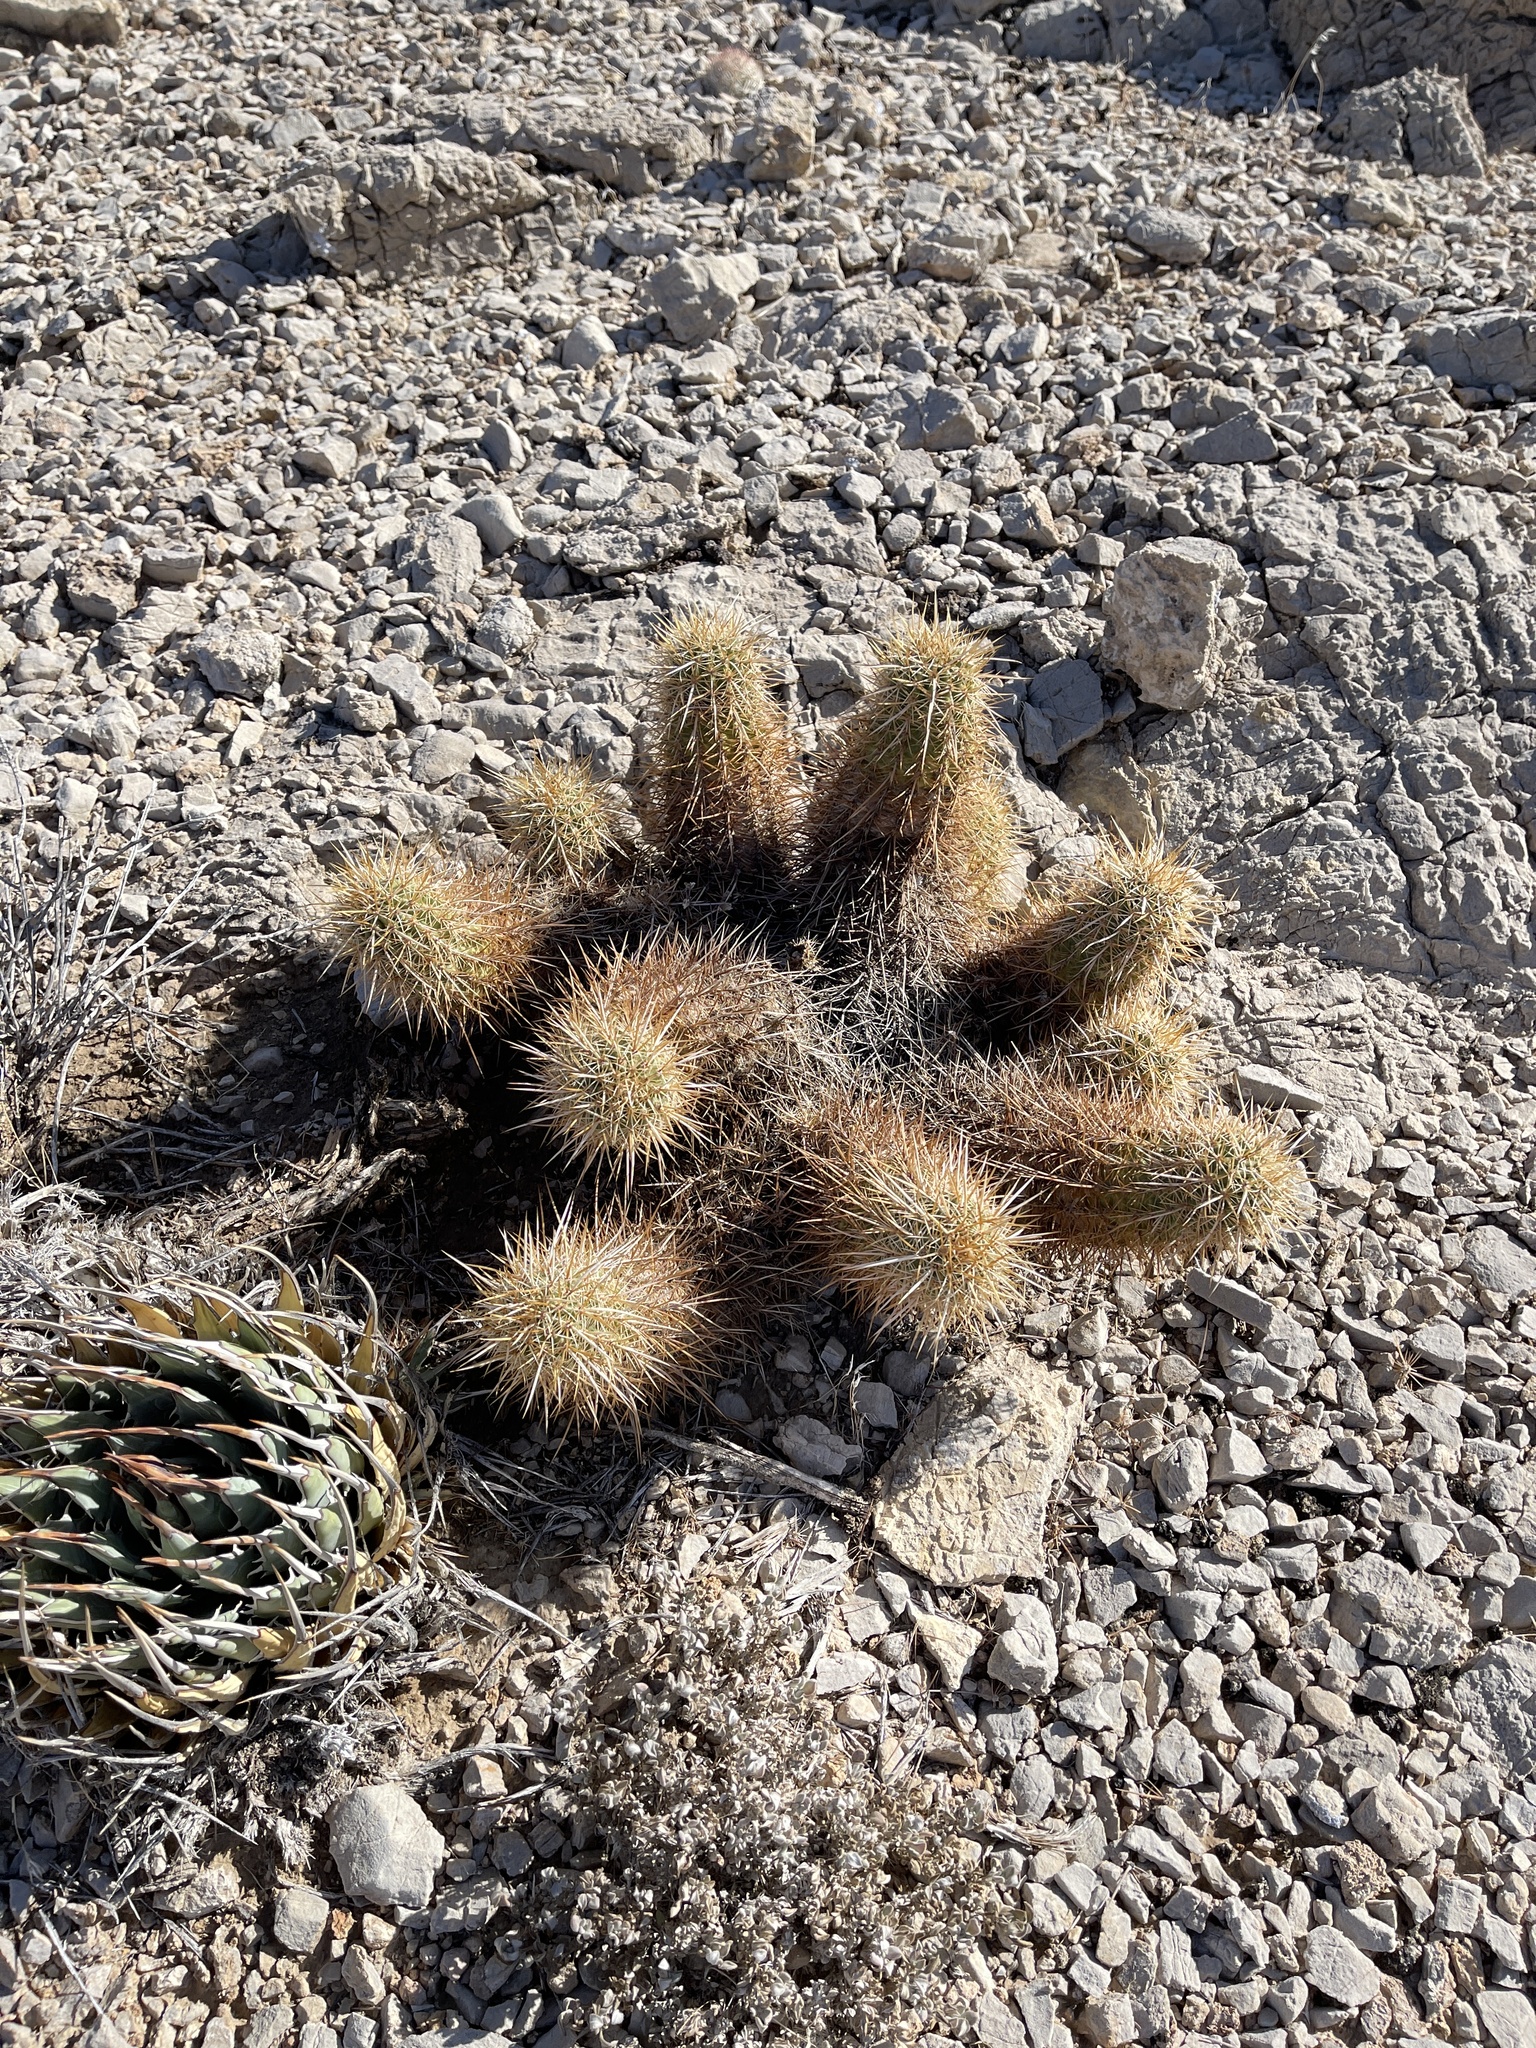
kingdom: Plantae
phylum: Tracheophyta
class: Magnoliopsida
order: Caryophyllales
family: Cactaceae
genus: Echinocereus
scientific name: Echinocereus engelmannii
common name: Engelmann's hedgehog cactus
